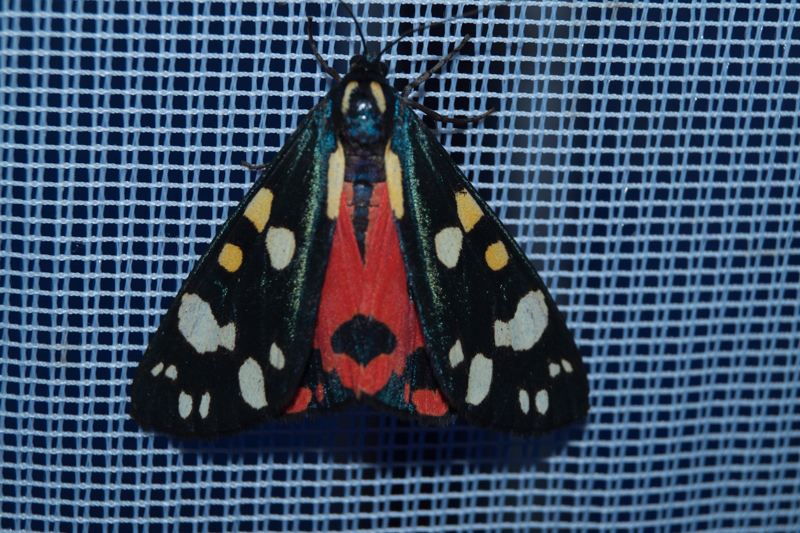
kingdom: Animalia
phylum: Arthropoda
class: Insecta
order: Lepidoptera
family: Erebidae
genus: Callimorpha
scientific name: Callimorpha dominula
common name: Scarlet tiger
